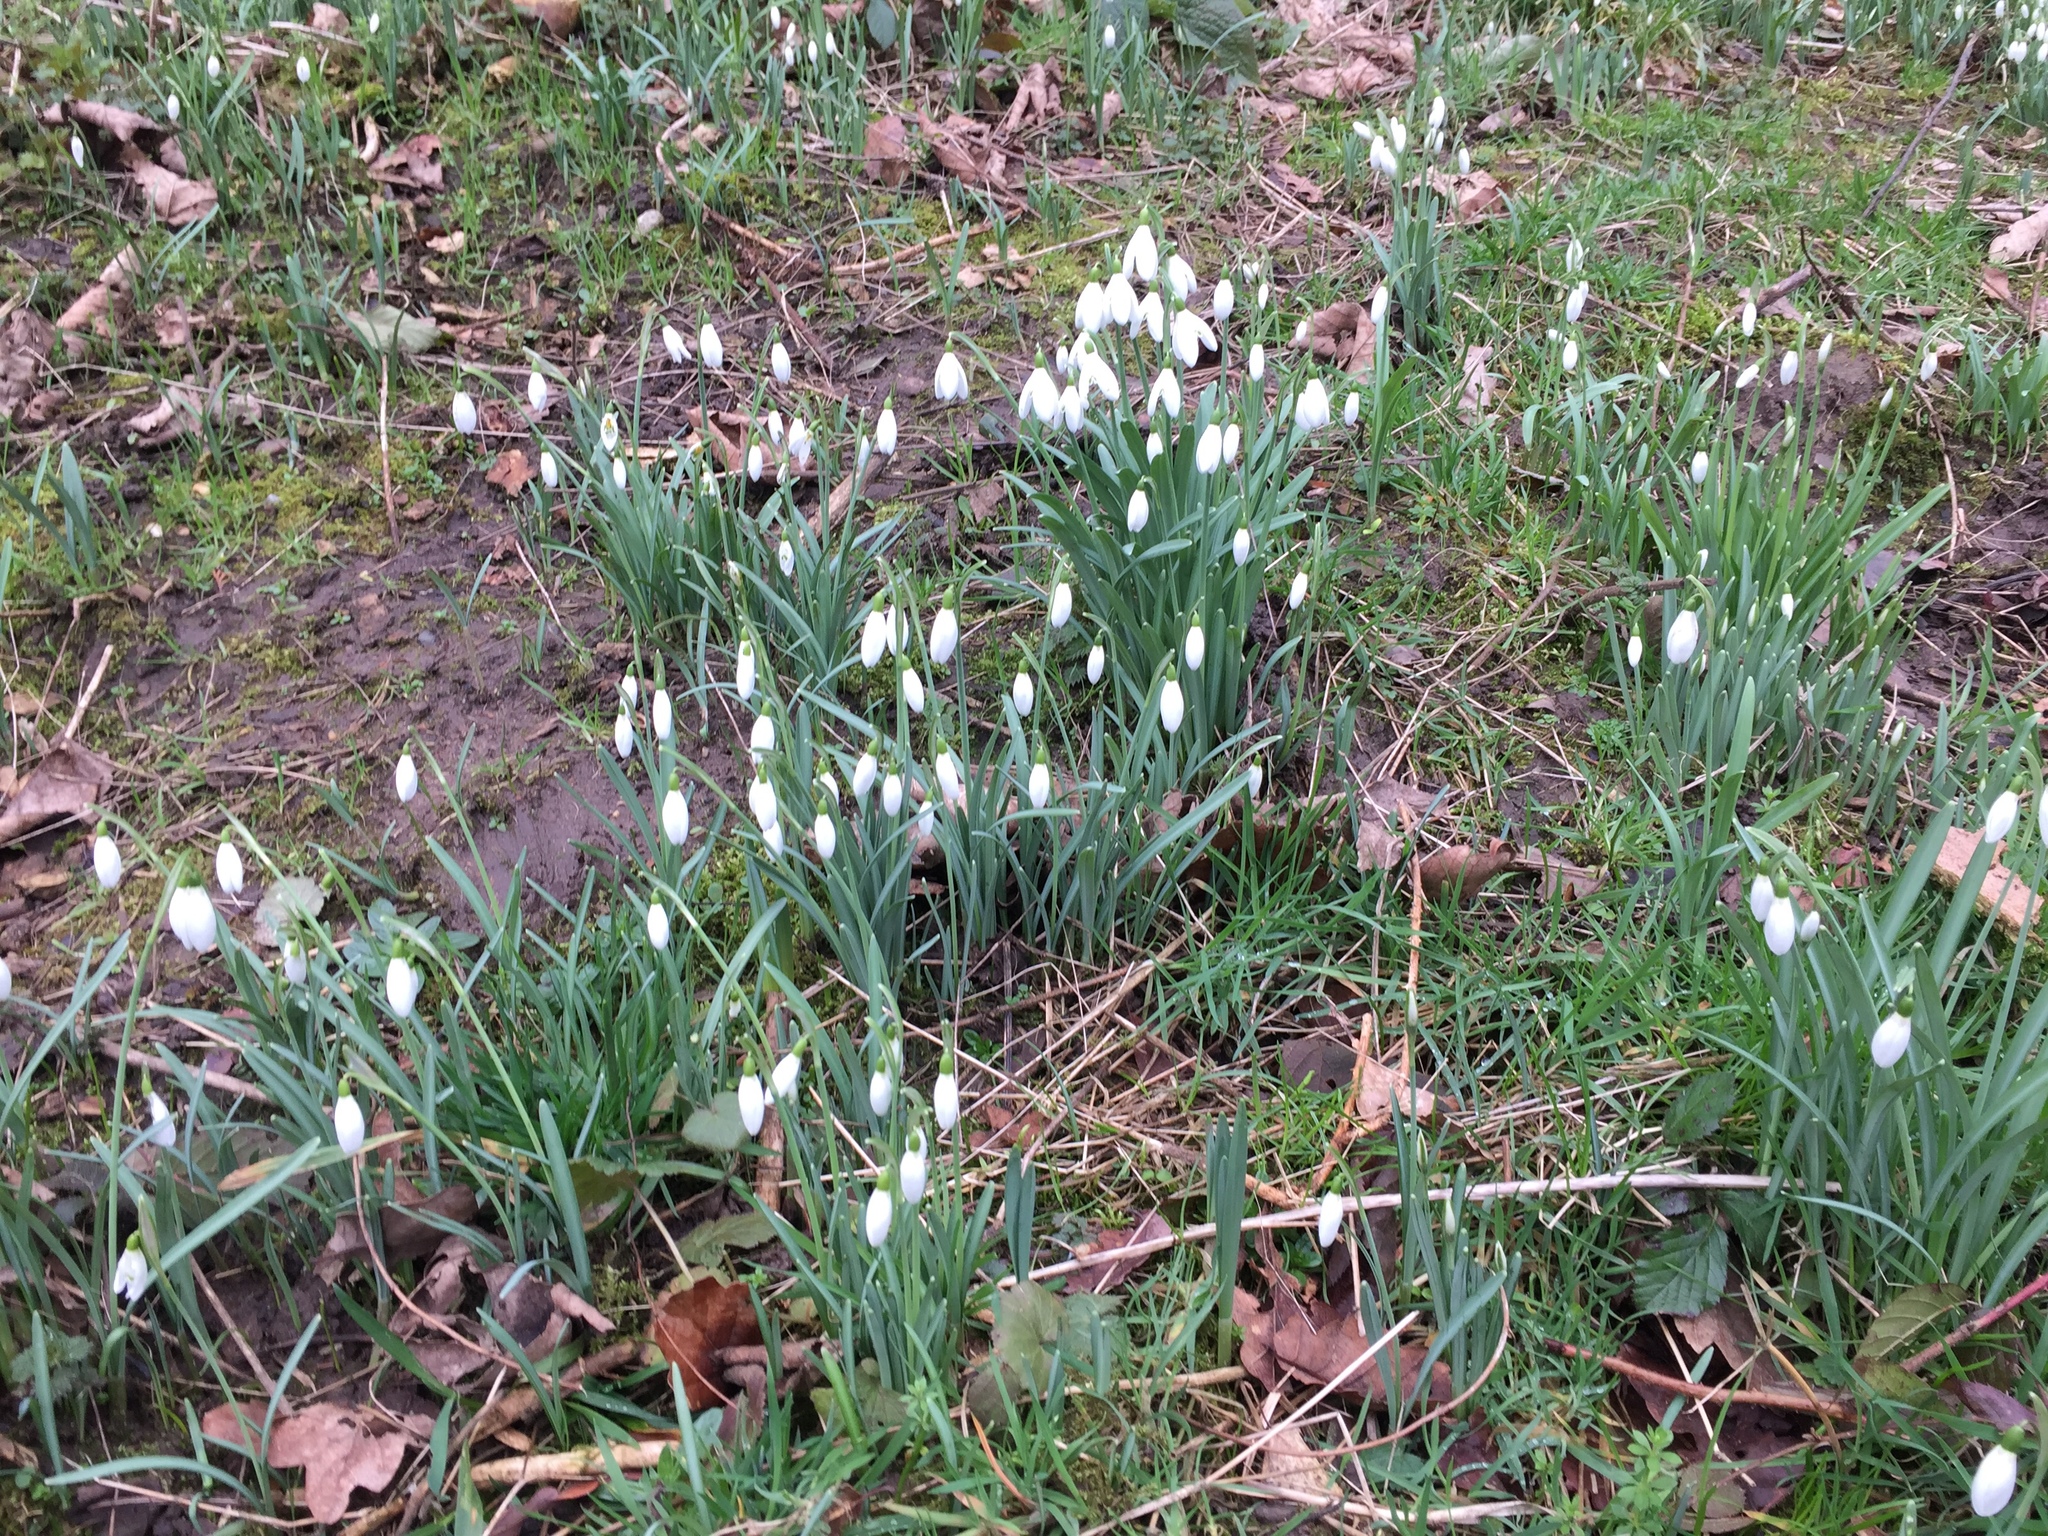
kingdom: Plantae
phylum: Tracheophyta
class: Liliopsida
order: Asparagales
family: Amaryllidaceae
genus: Galanthus
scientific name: Galanthus nivalis
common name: Snowdrop
